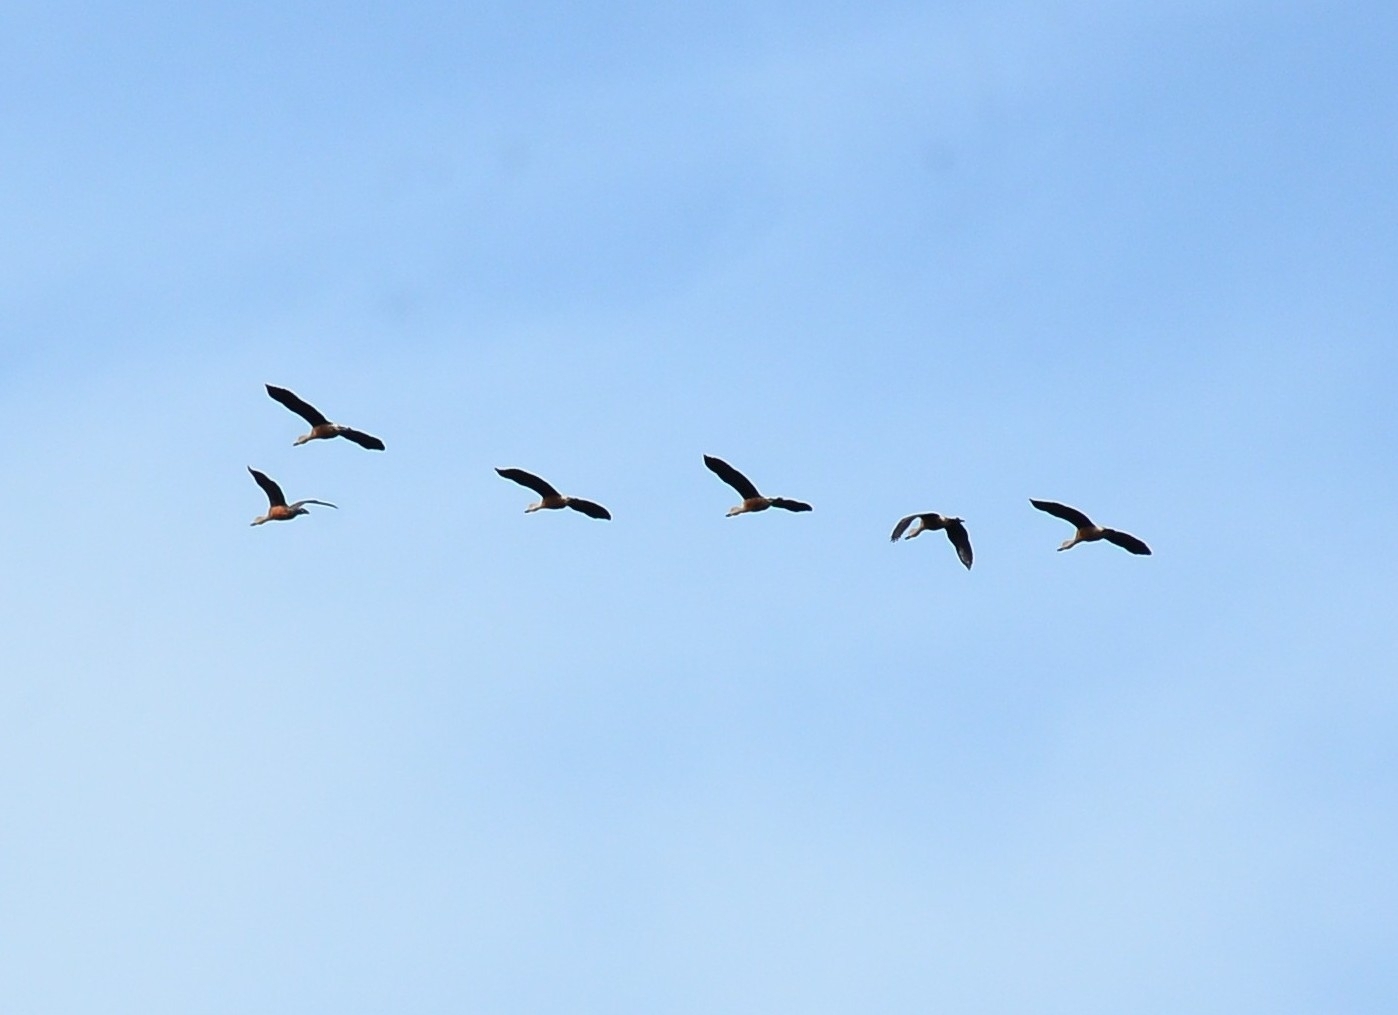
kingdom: Animalia
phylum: Chordata
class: Aves
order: Anseriformes
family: Anatidae
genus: Dendrocygna
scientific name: Dendrocygna javanica
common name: Lesser whistling-duck
